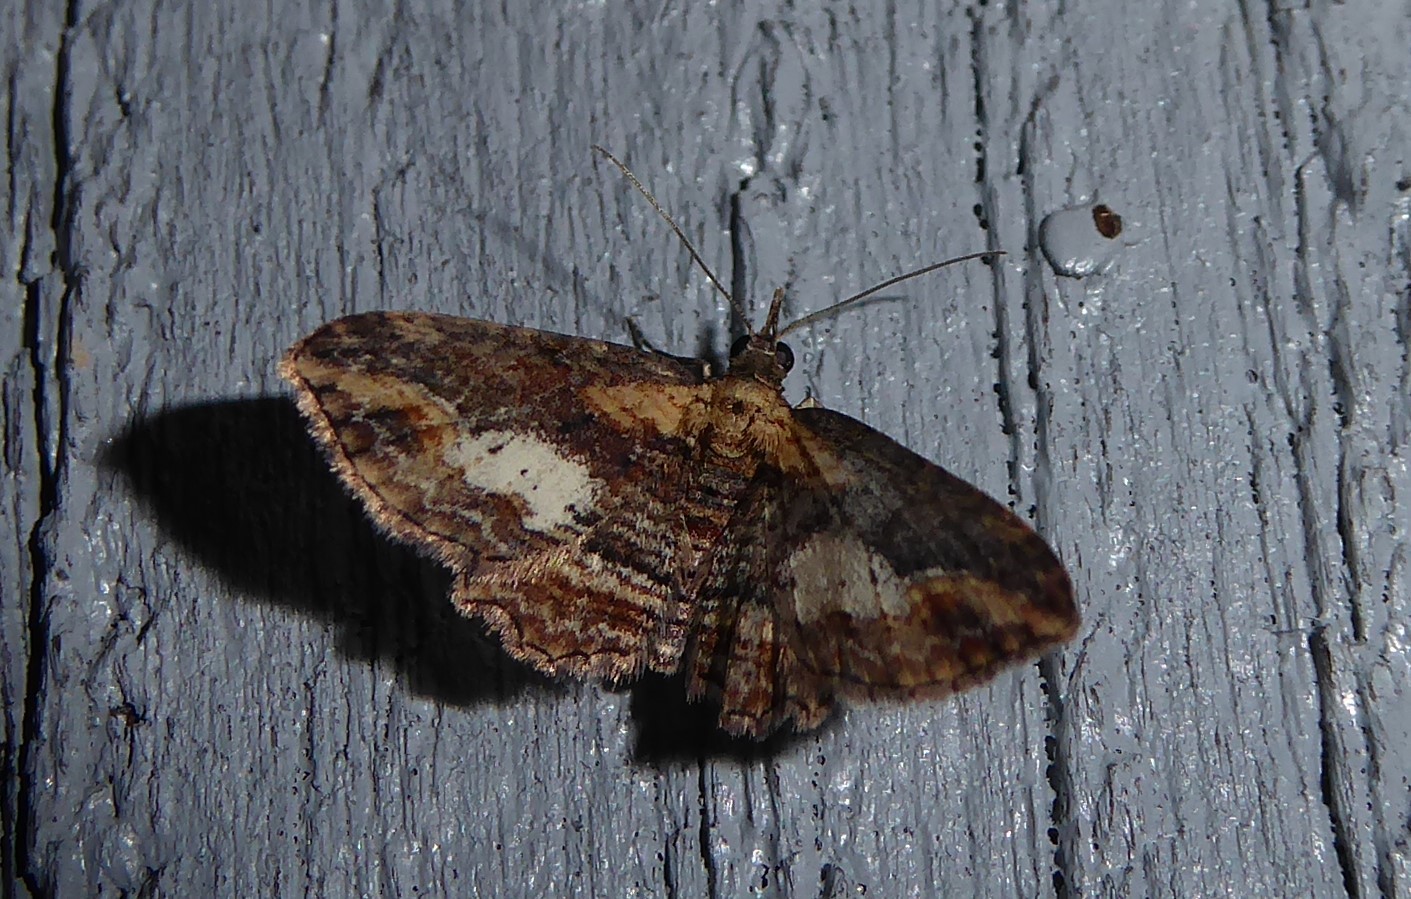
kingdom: Animalia
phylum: Arthropoda
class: Insecta
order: Lepidoptera
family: Geometridae
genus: Chloroclystis
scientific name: Chloroclystis filata
